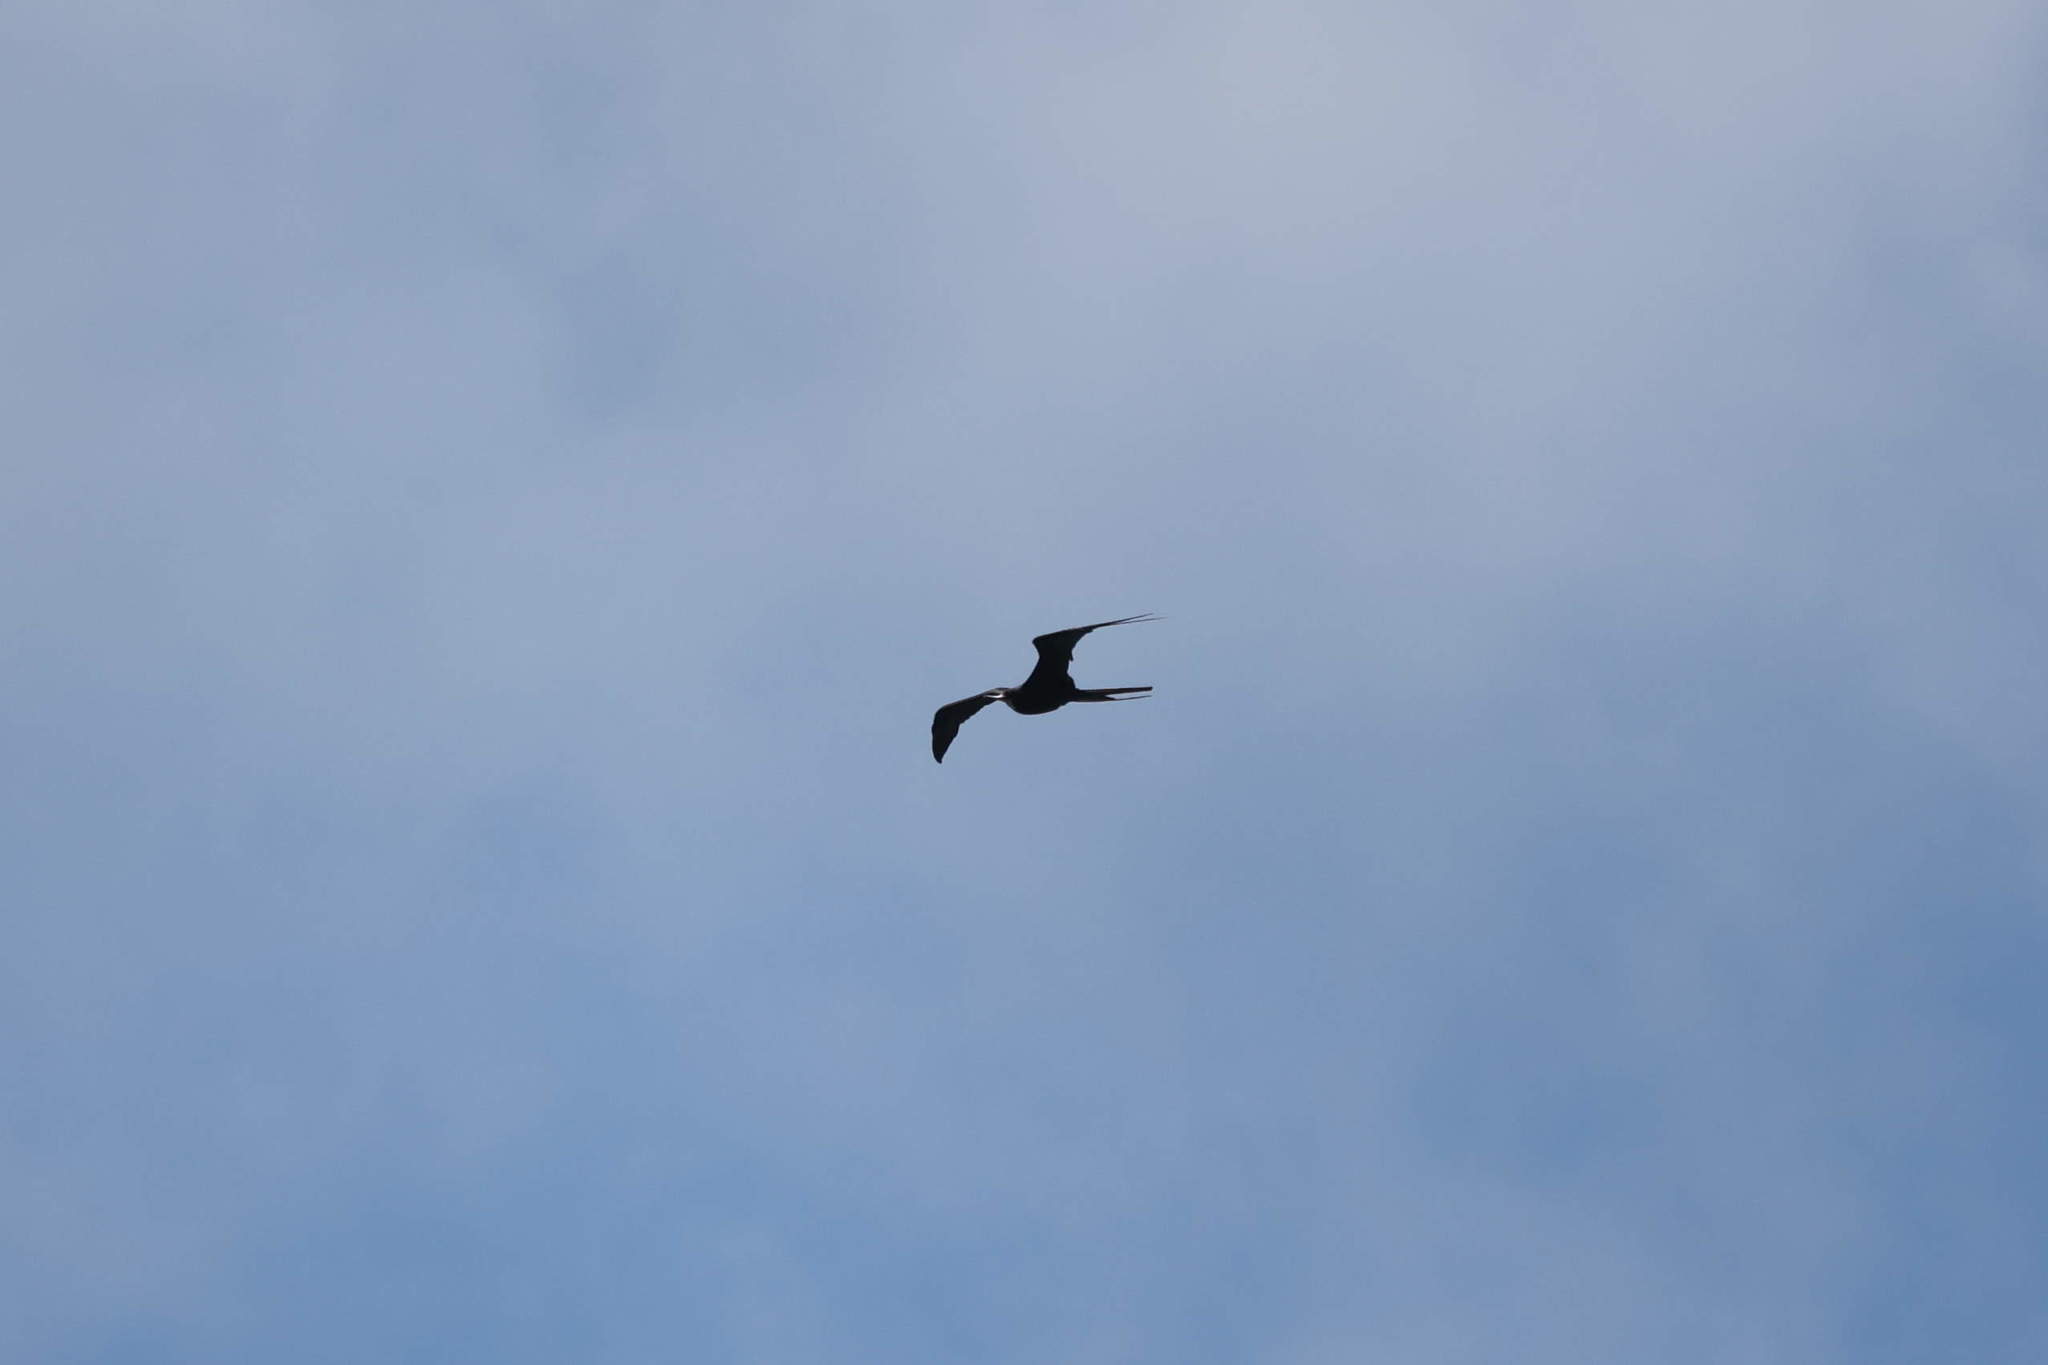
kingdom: Animalia
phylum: Chordata
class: Aves
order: Suliformes
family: Fregatidae
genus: Fregata
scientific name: Fregata magnificens
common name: Magnificent frigatebird
